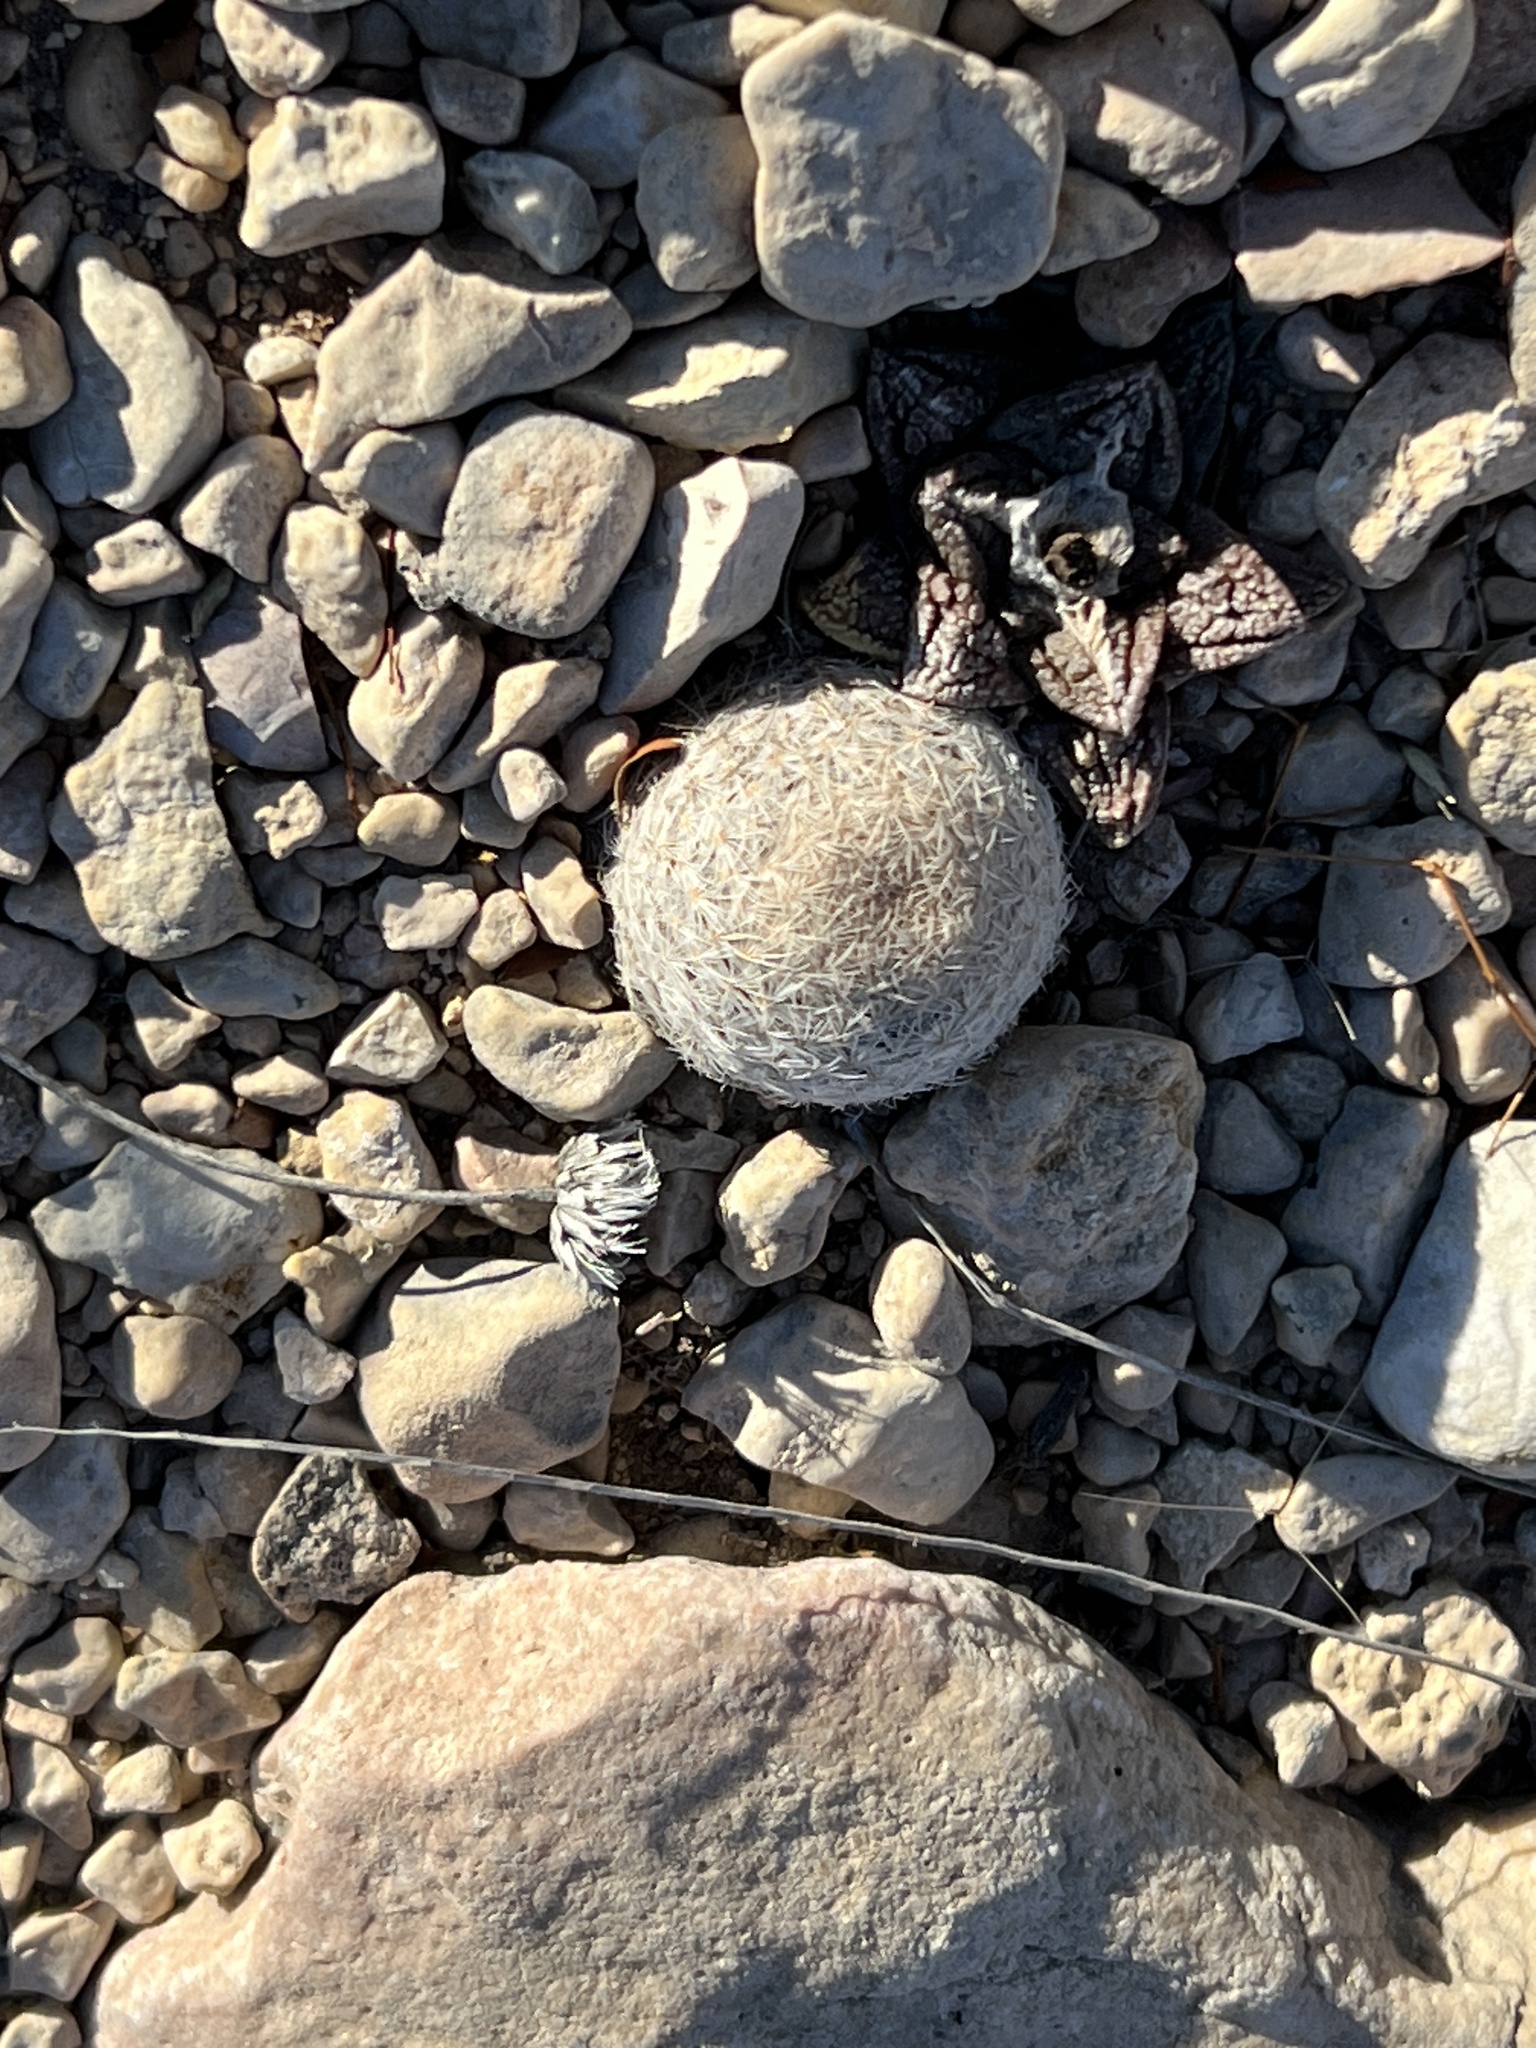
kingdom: Plantae
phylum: Tracheophyta
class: Magnoliopsida
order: Caryophyllales
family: Cactaceae
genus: Epithelantha
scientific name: Epithelantha micromeris
